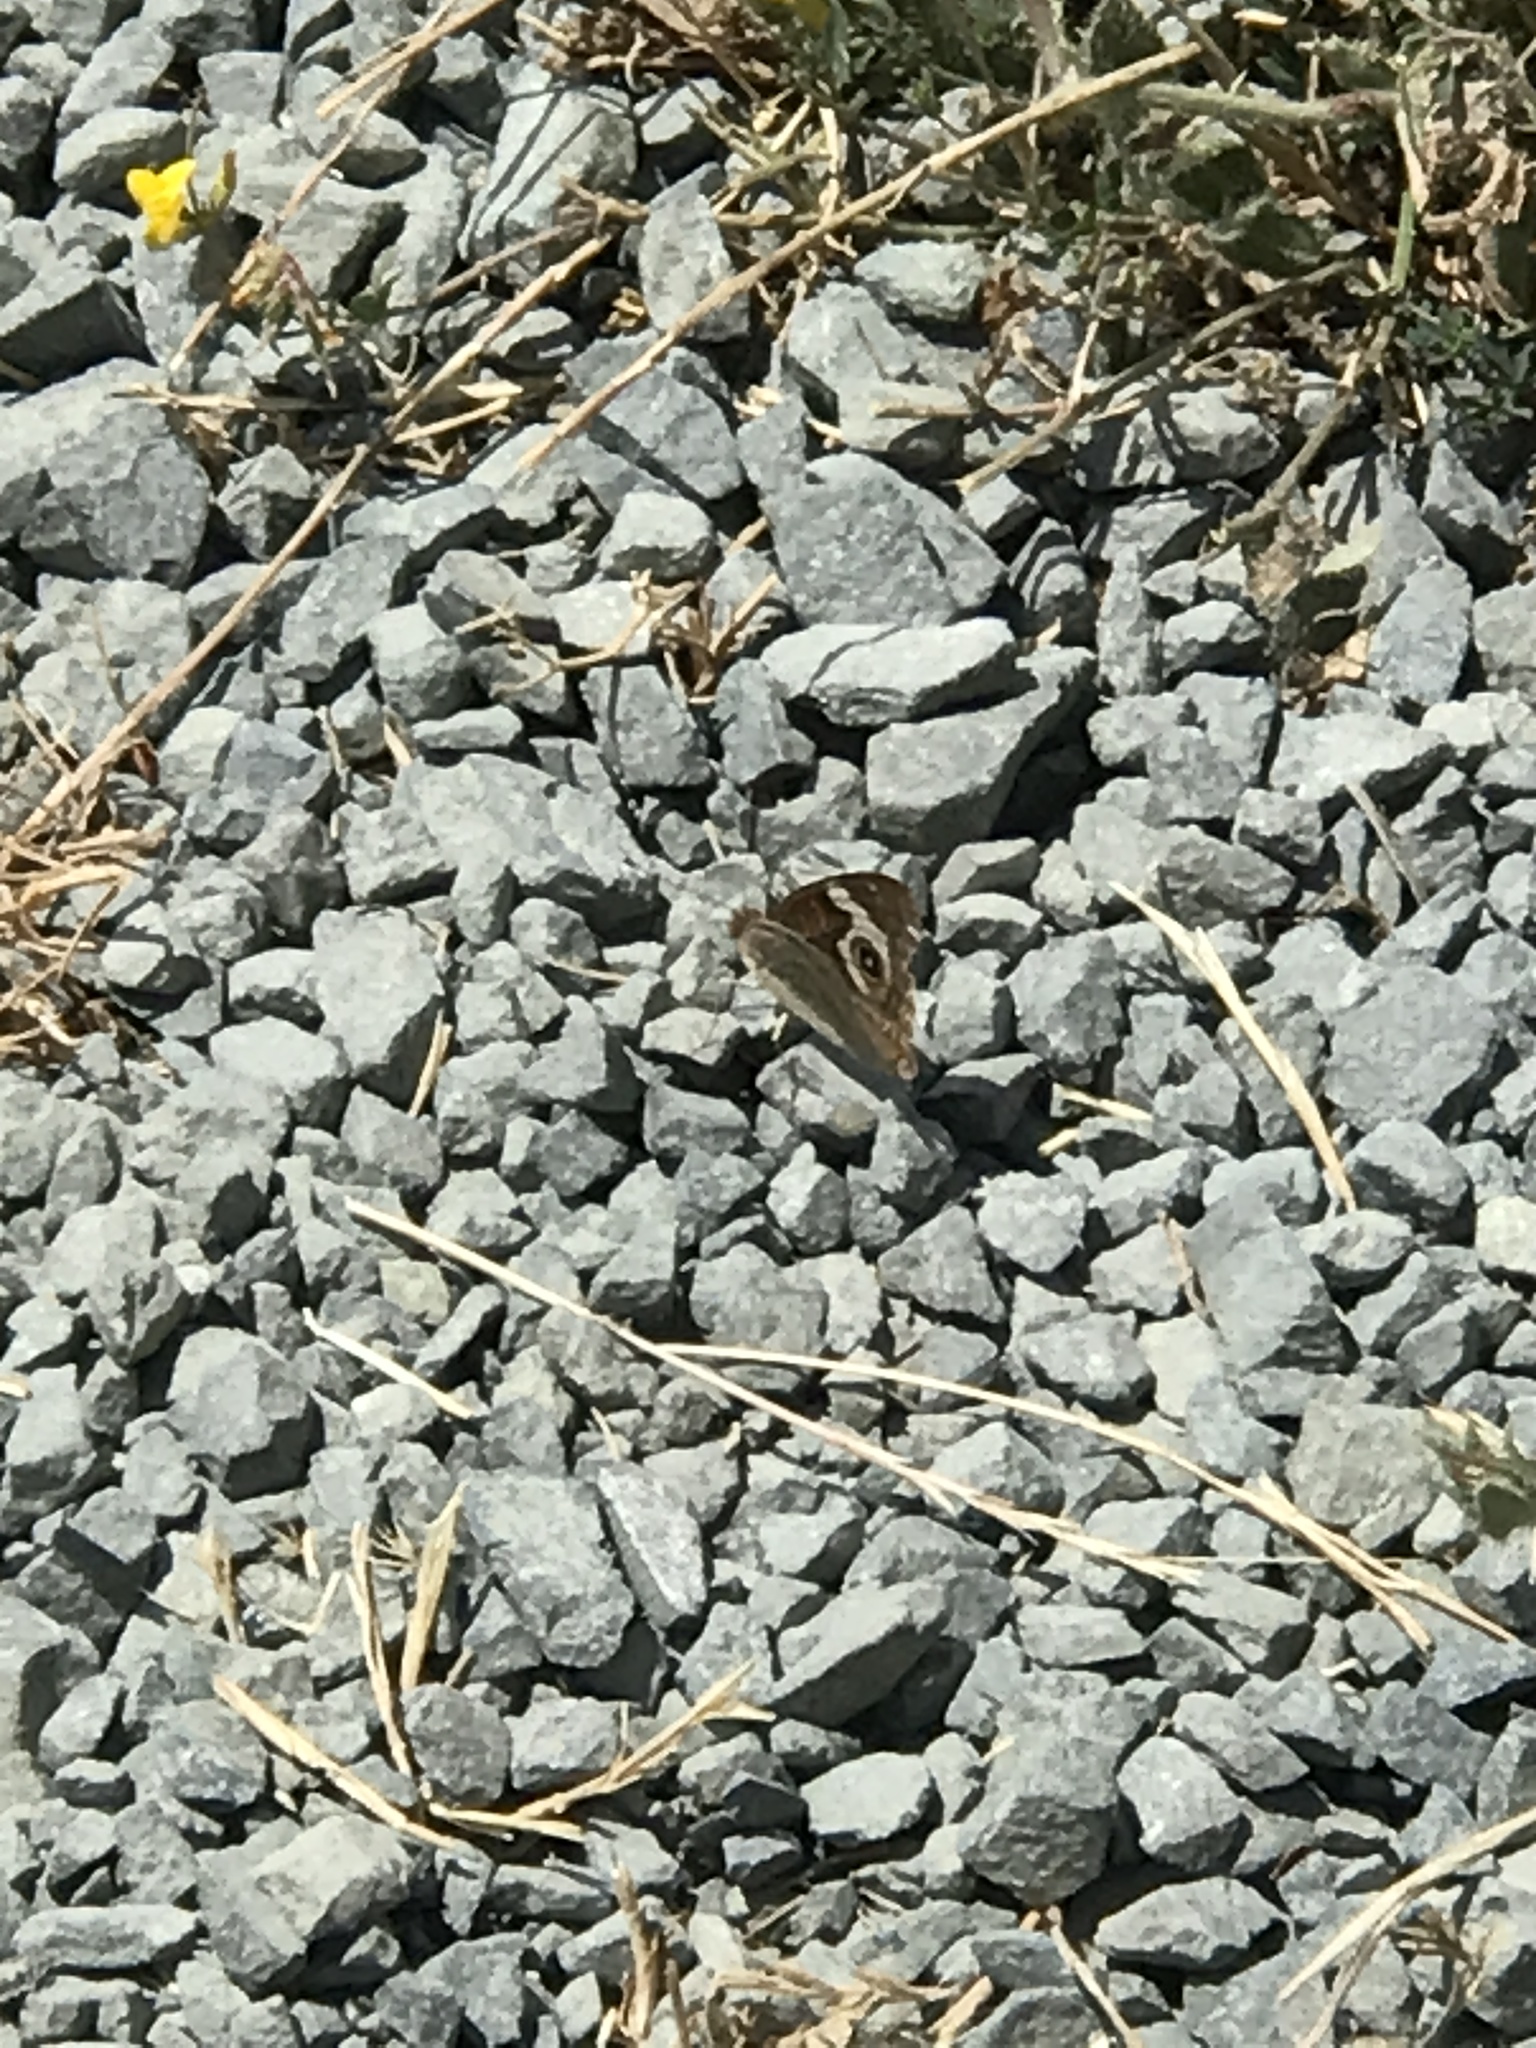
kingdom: Animalia
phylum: Arthropoda
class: Insecta
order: Lepidoptera
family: Nymphalidae
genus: Junonia
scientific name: Junonia grisea
